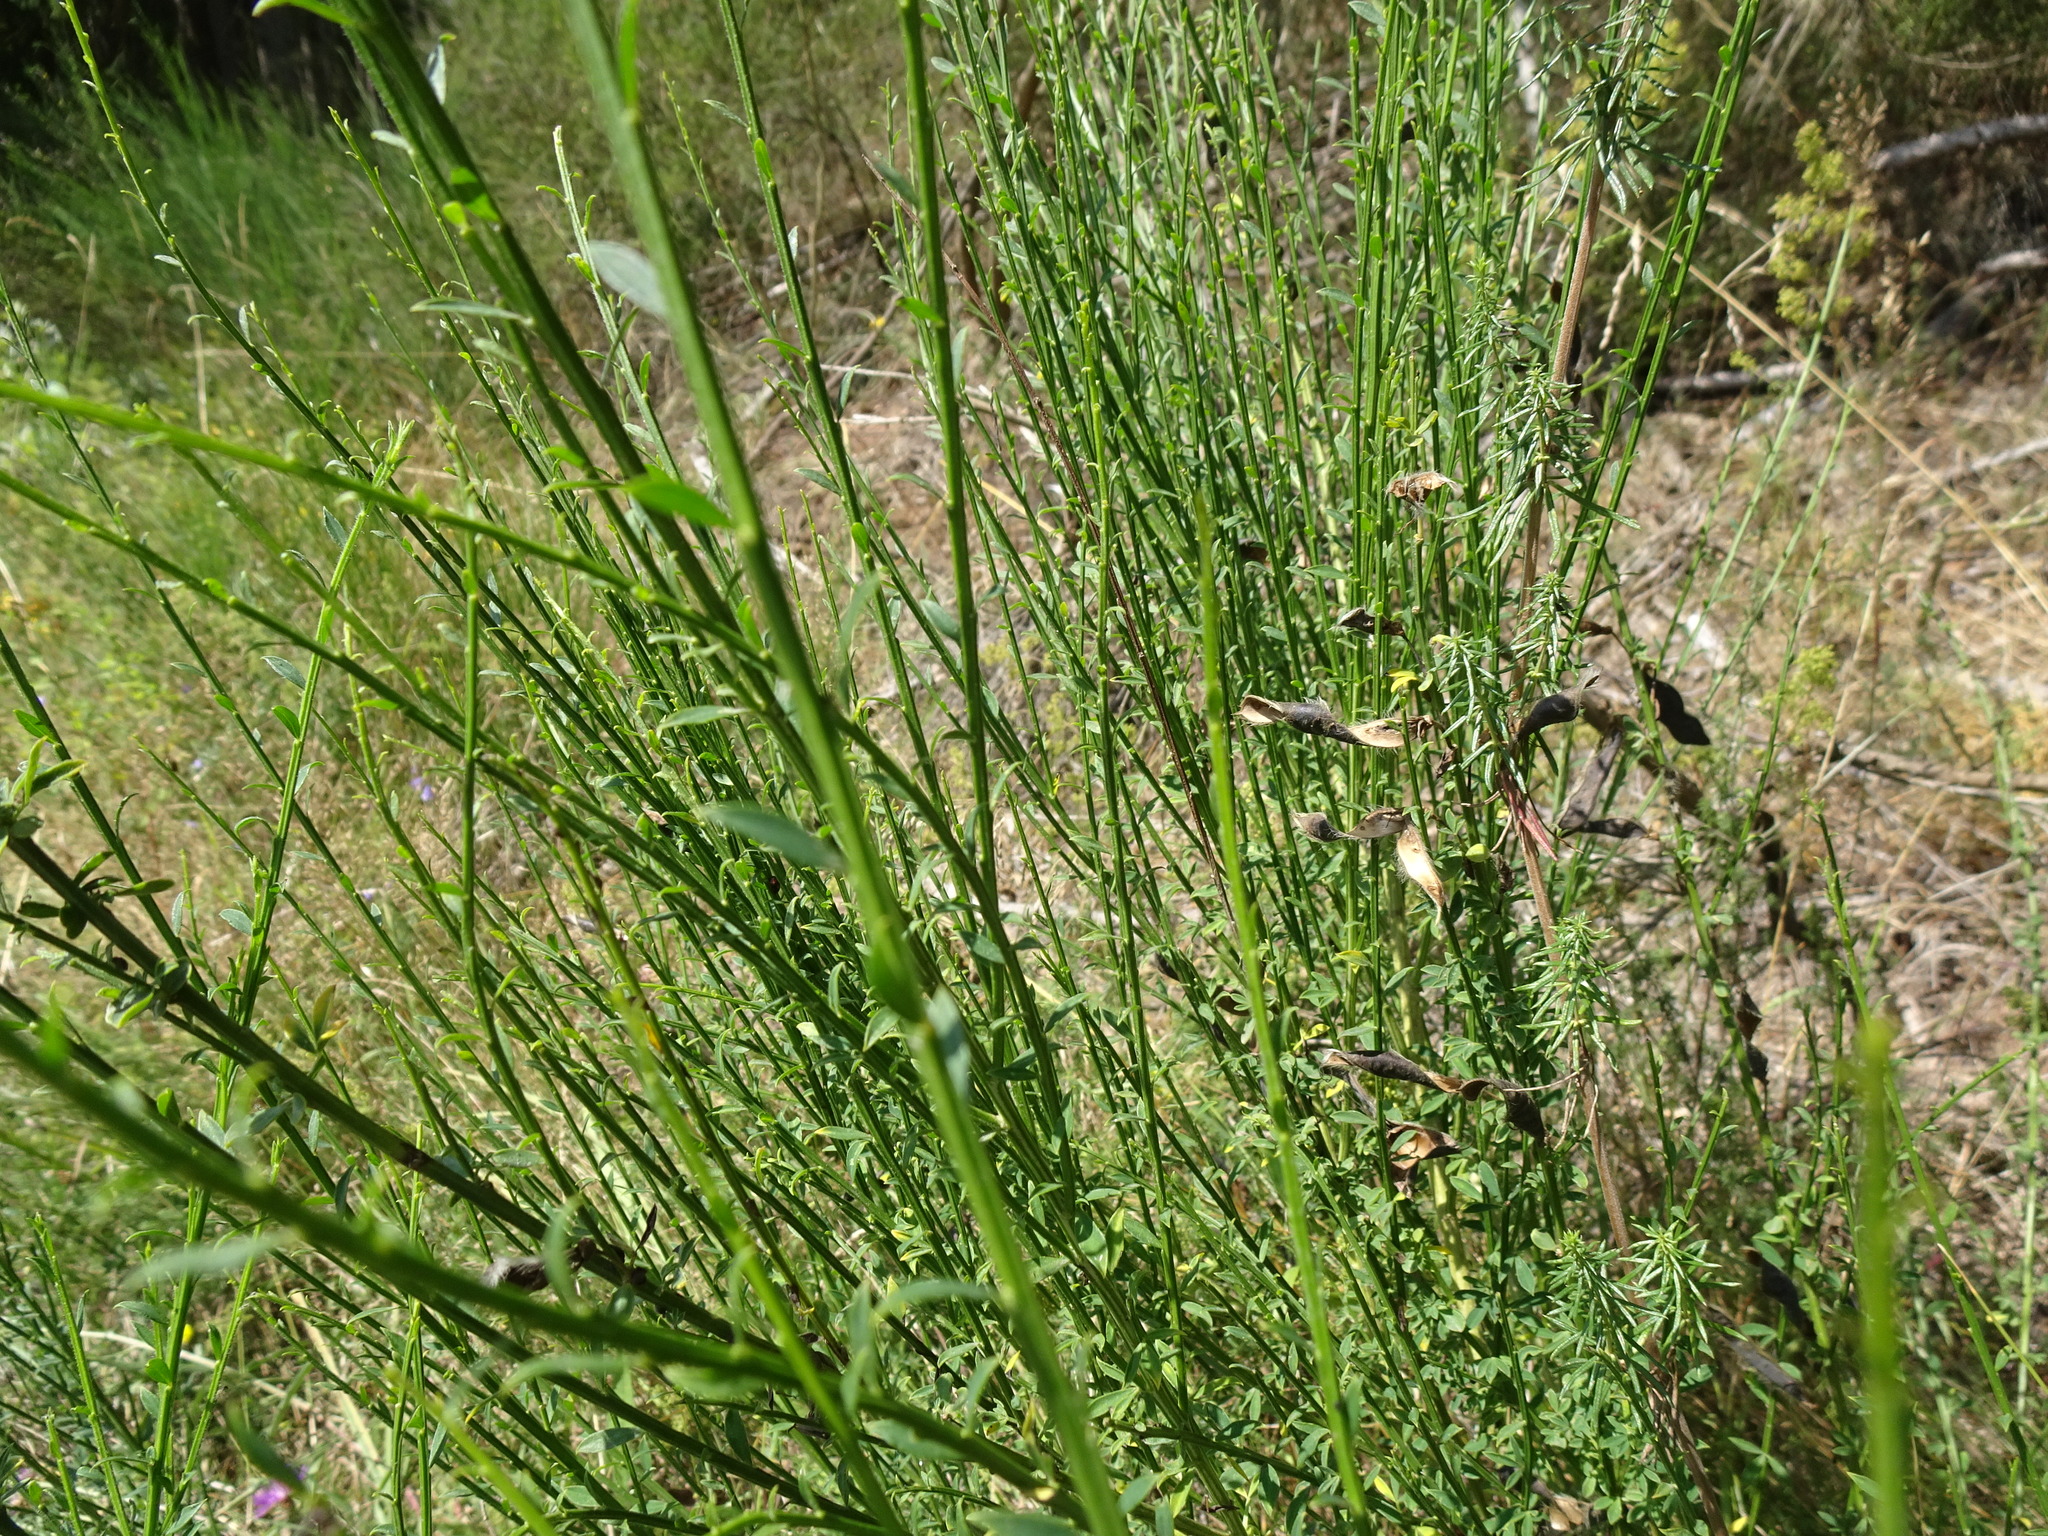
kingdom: Plantae
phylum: Tracheophyta
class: Magnoliopsida
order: Fabales
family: Fabaceae
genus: Cytisus
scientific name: Cytisus scoparius
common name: Scotch broom
